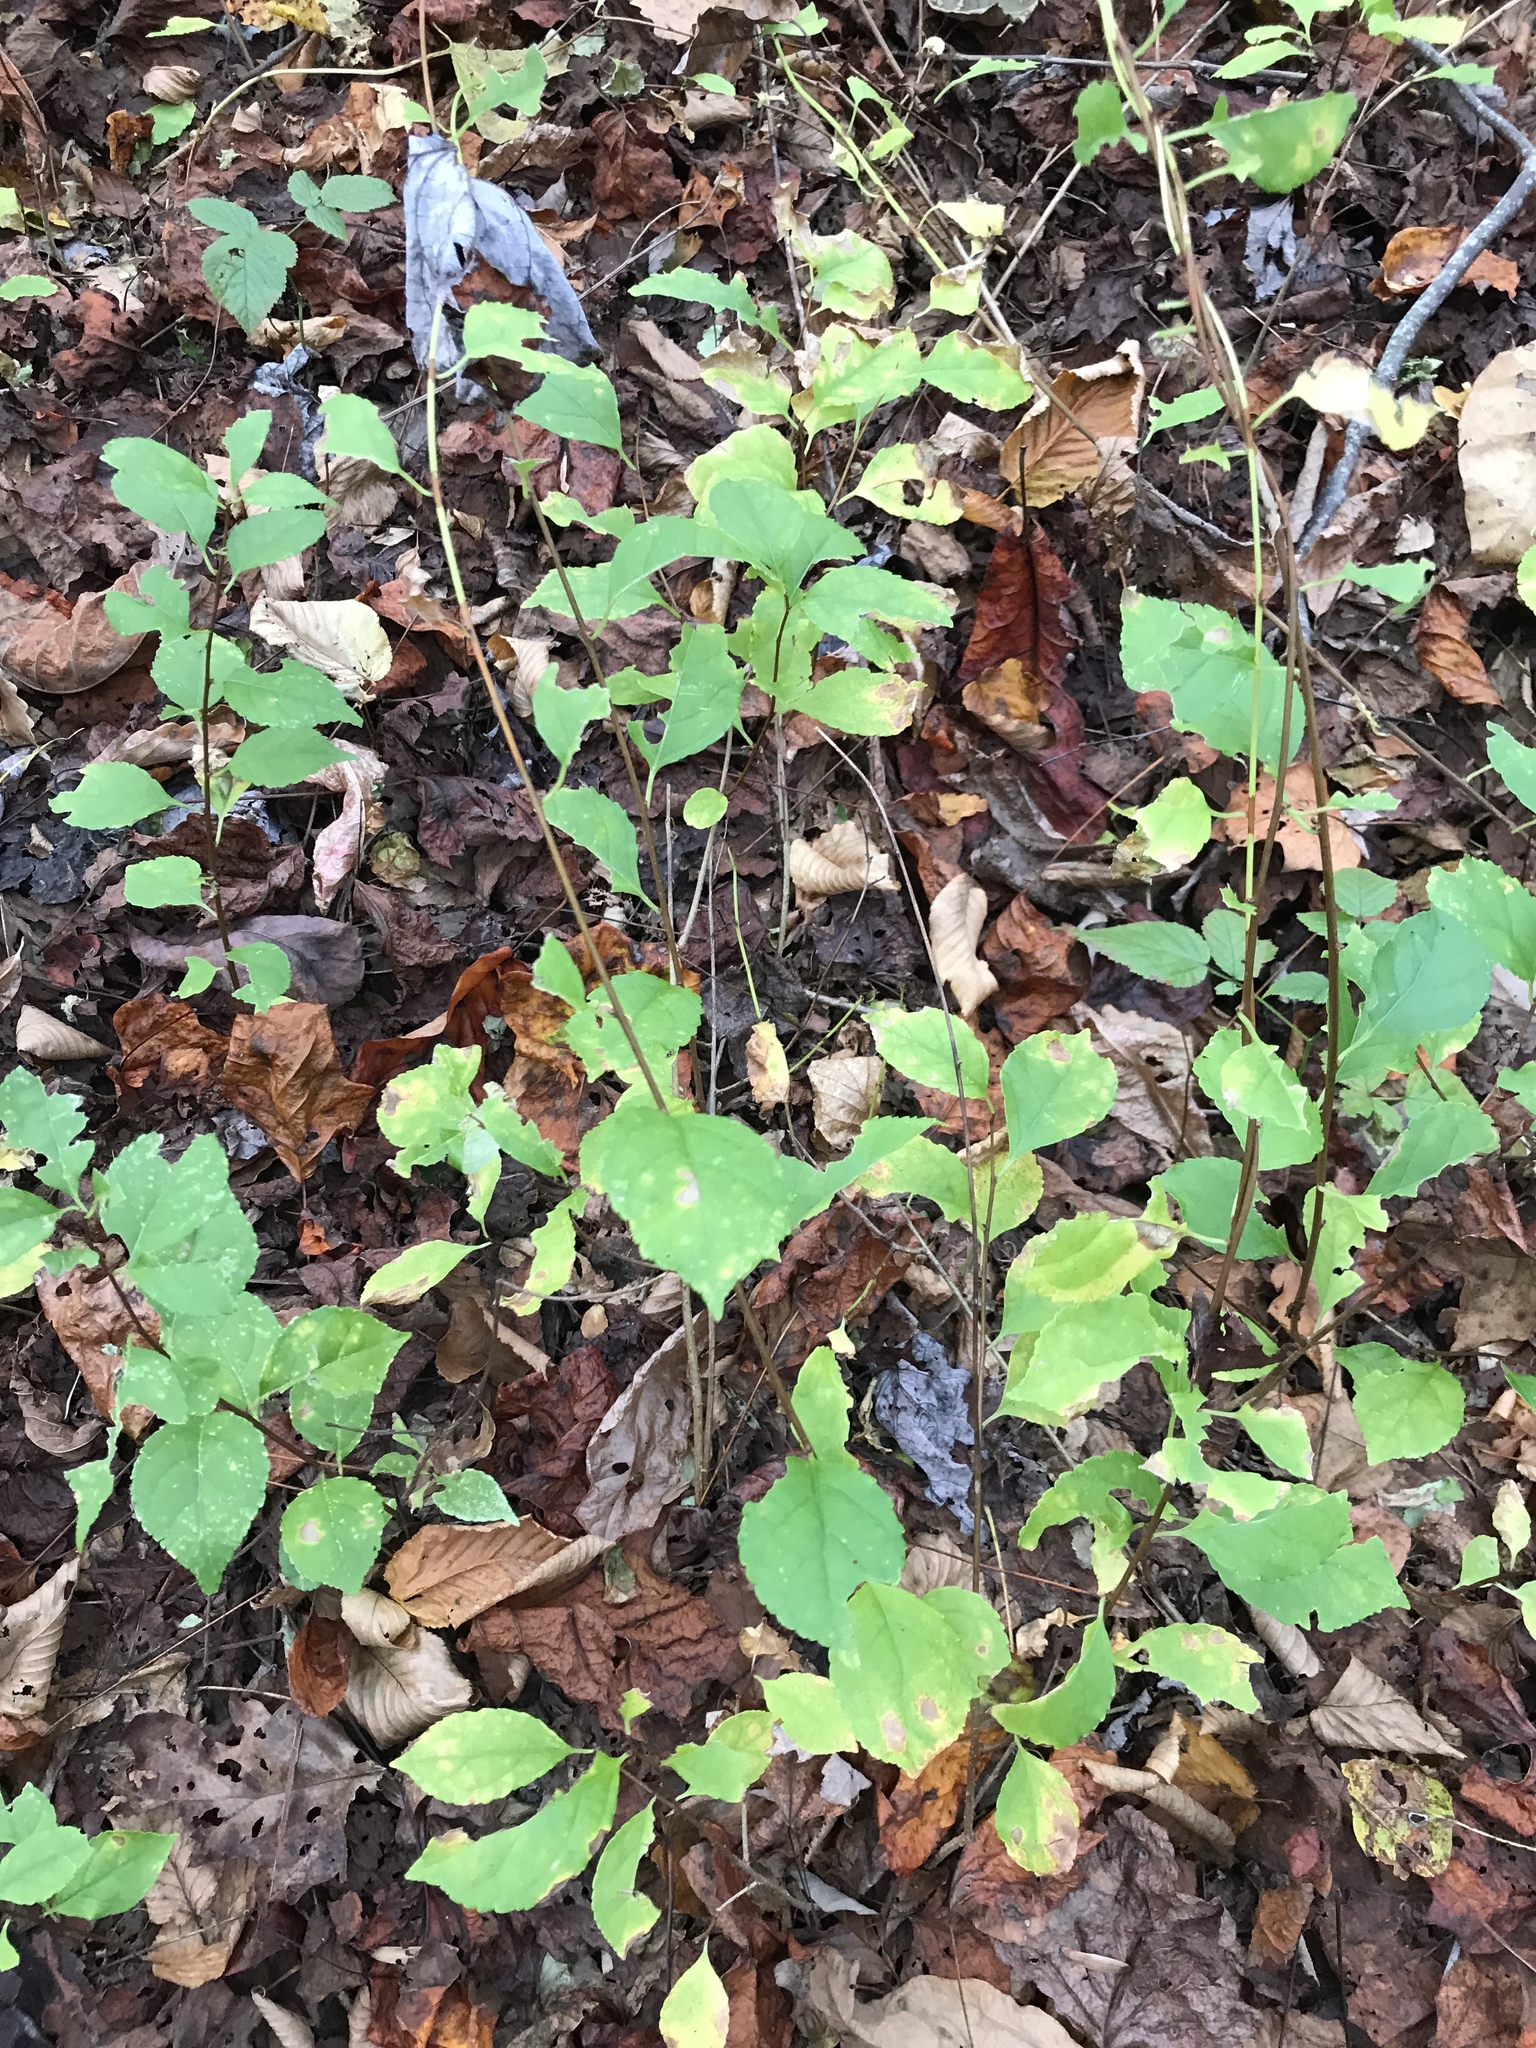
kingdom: Plantae
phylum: Tracheophyta
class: Magnoliopsida
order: Celastrales
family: Celastraceae
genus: Celastrus
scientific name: Celastrus orbiculatus
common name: Oriental bittersweet
